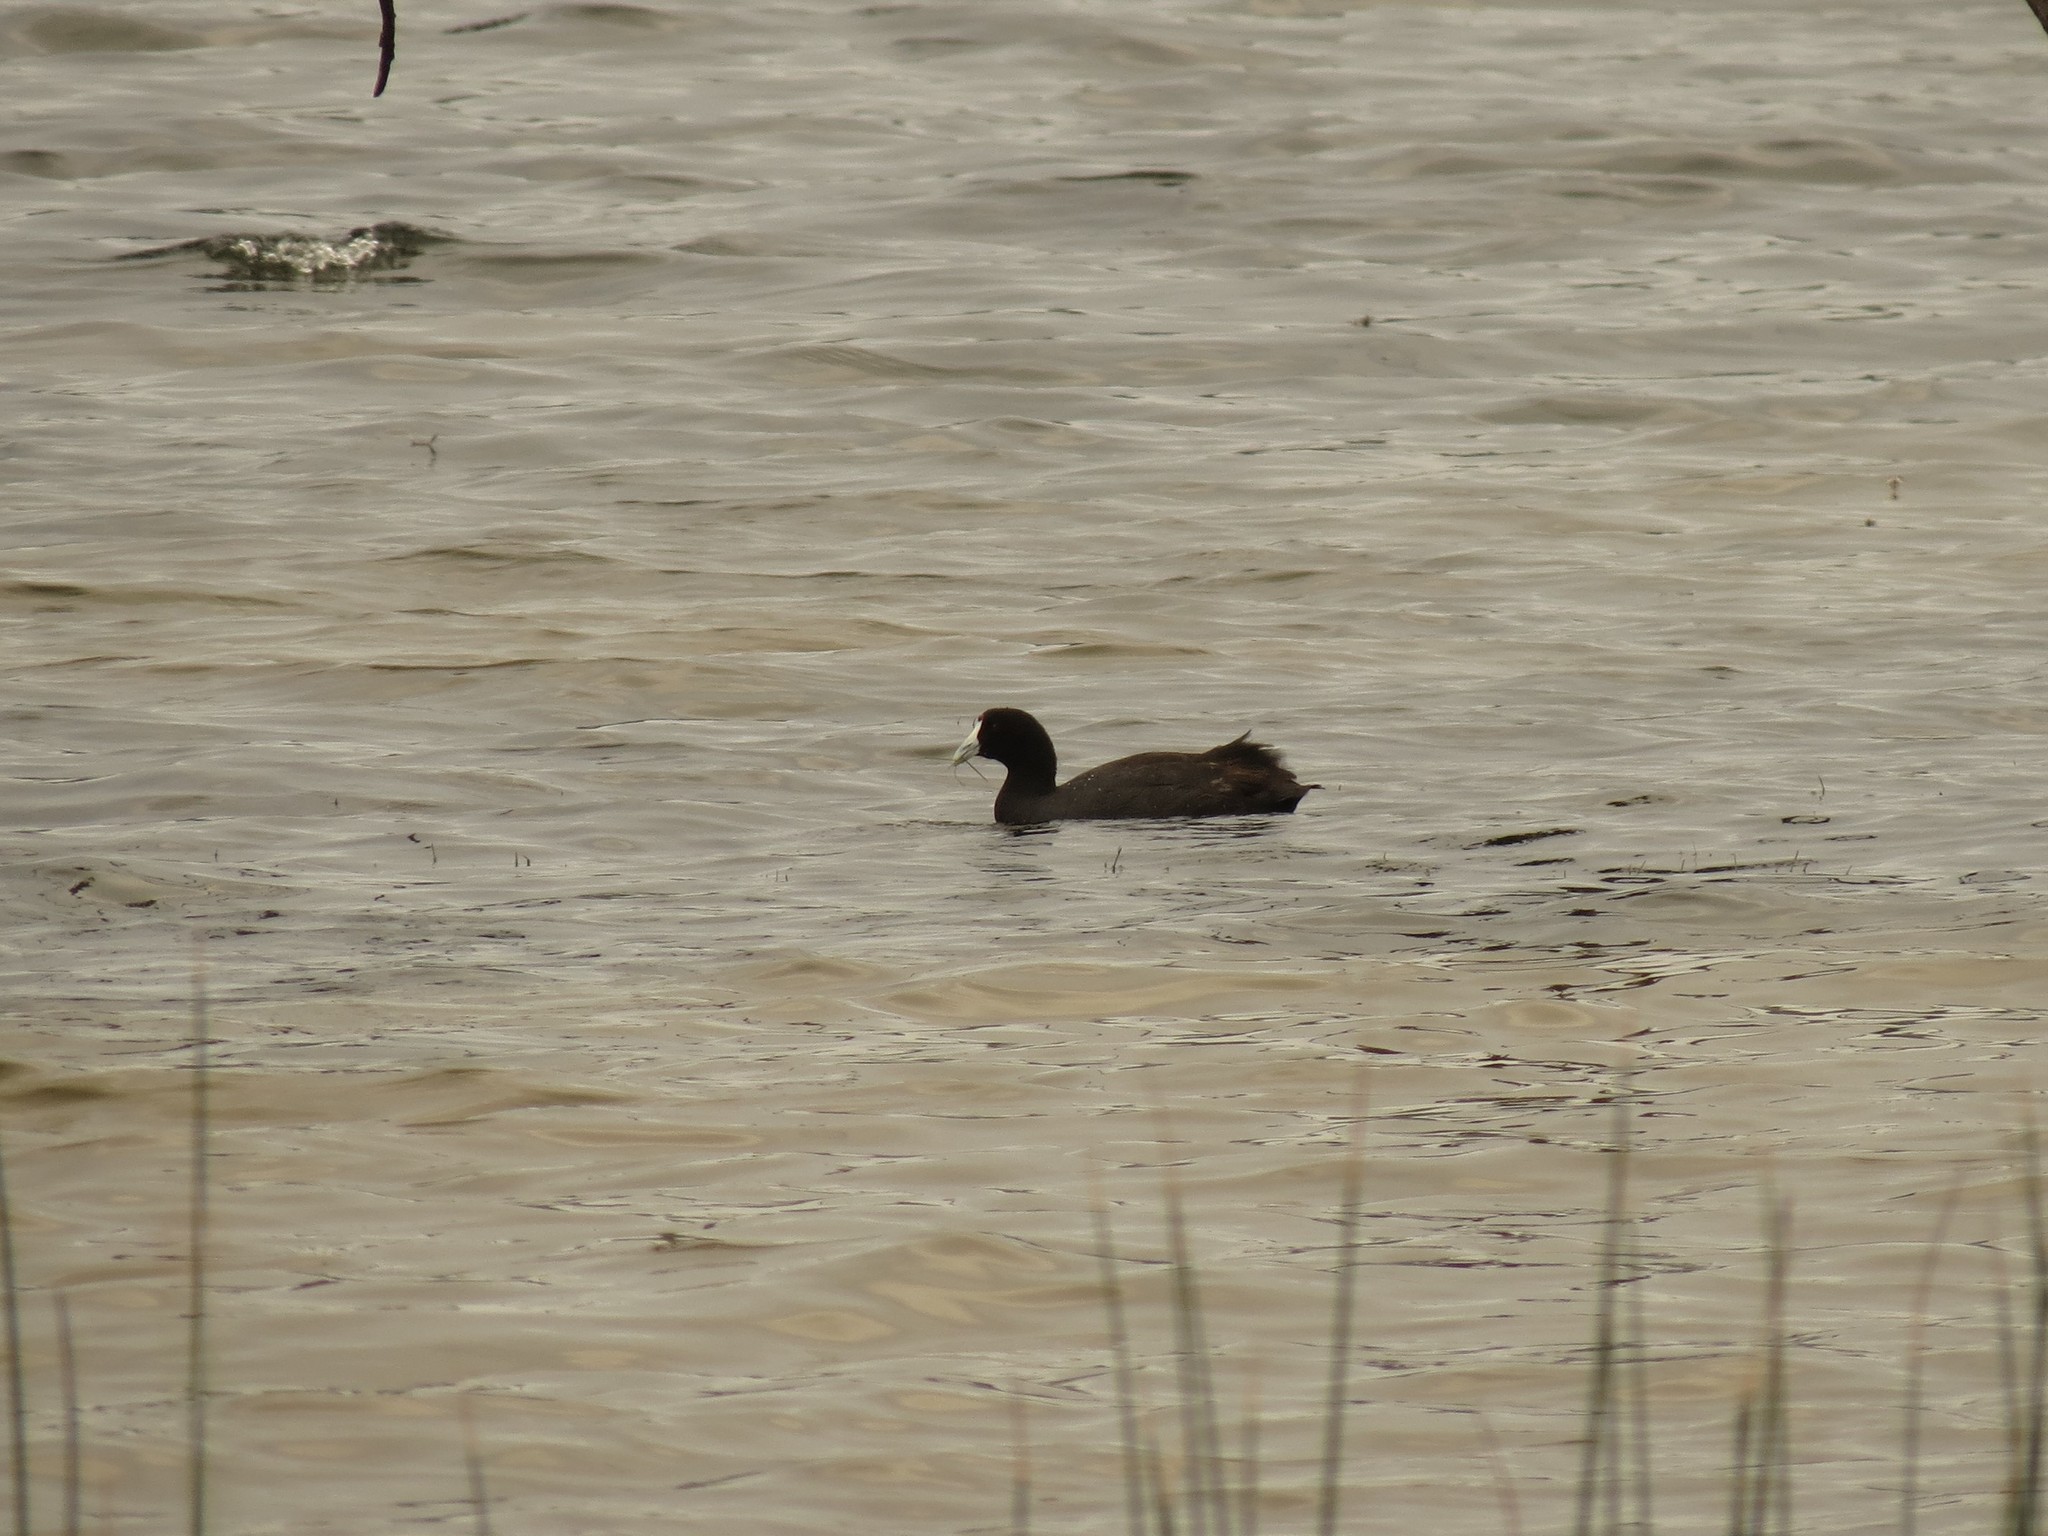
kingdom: Animalia
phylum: Chordata
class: Aves
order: Gruiformes
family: Rallidae
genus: Fulica
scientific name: Fulica cristata
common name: Red-knobbed coot
